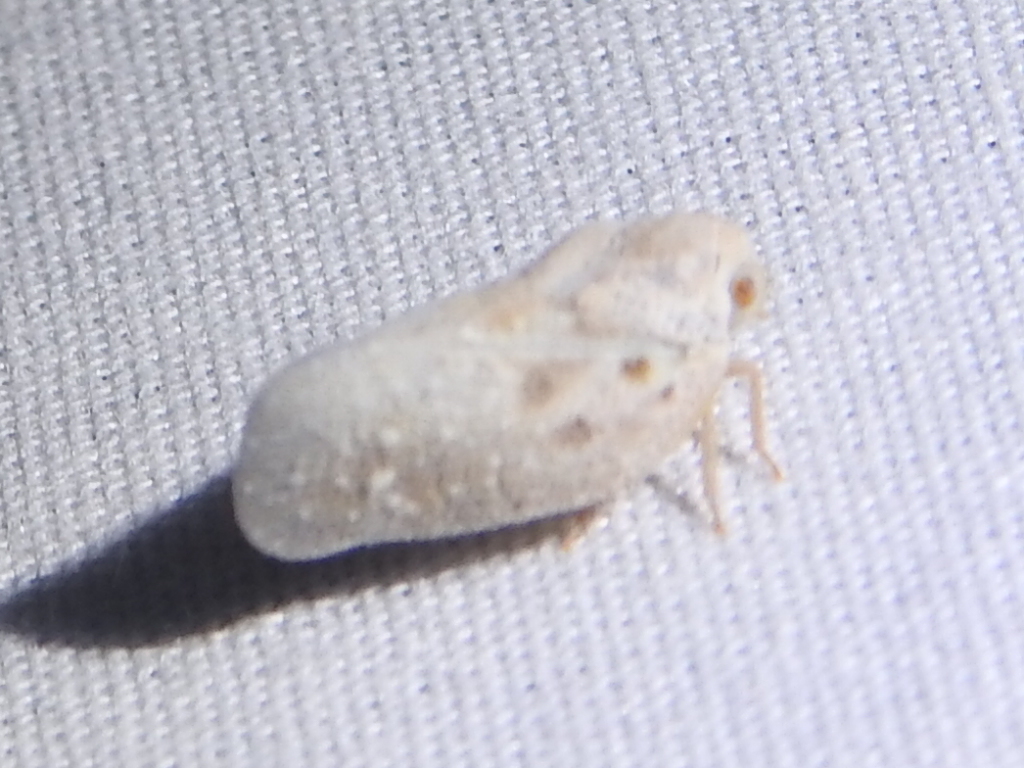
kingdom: Animalia
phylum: Arthropoda
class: Insecta
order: Hemiptera
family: Flatidae
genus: Metcalfa
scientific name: Metcalfa pruinosa
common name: Citrus flatid planthopper
